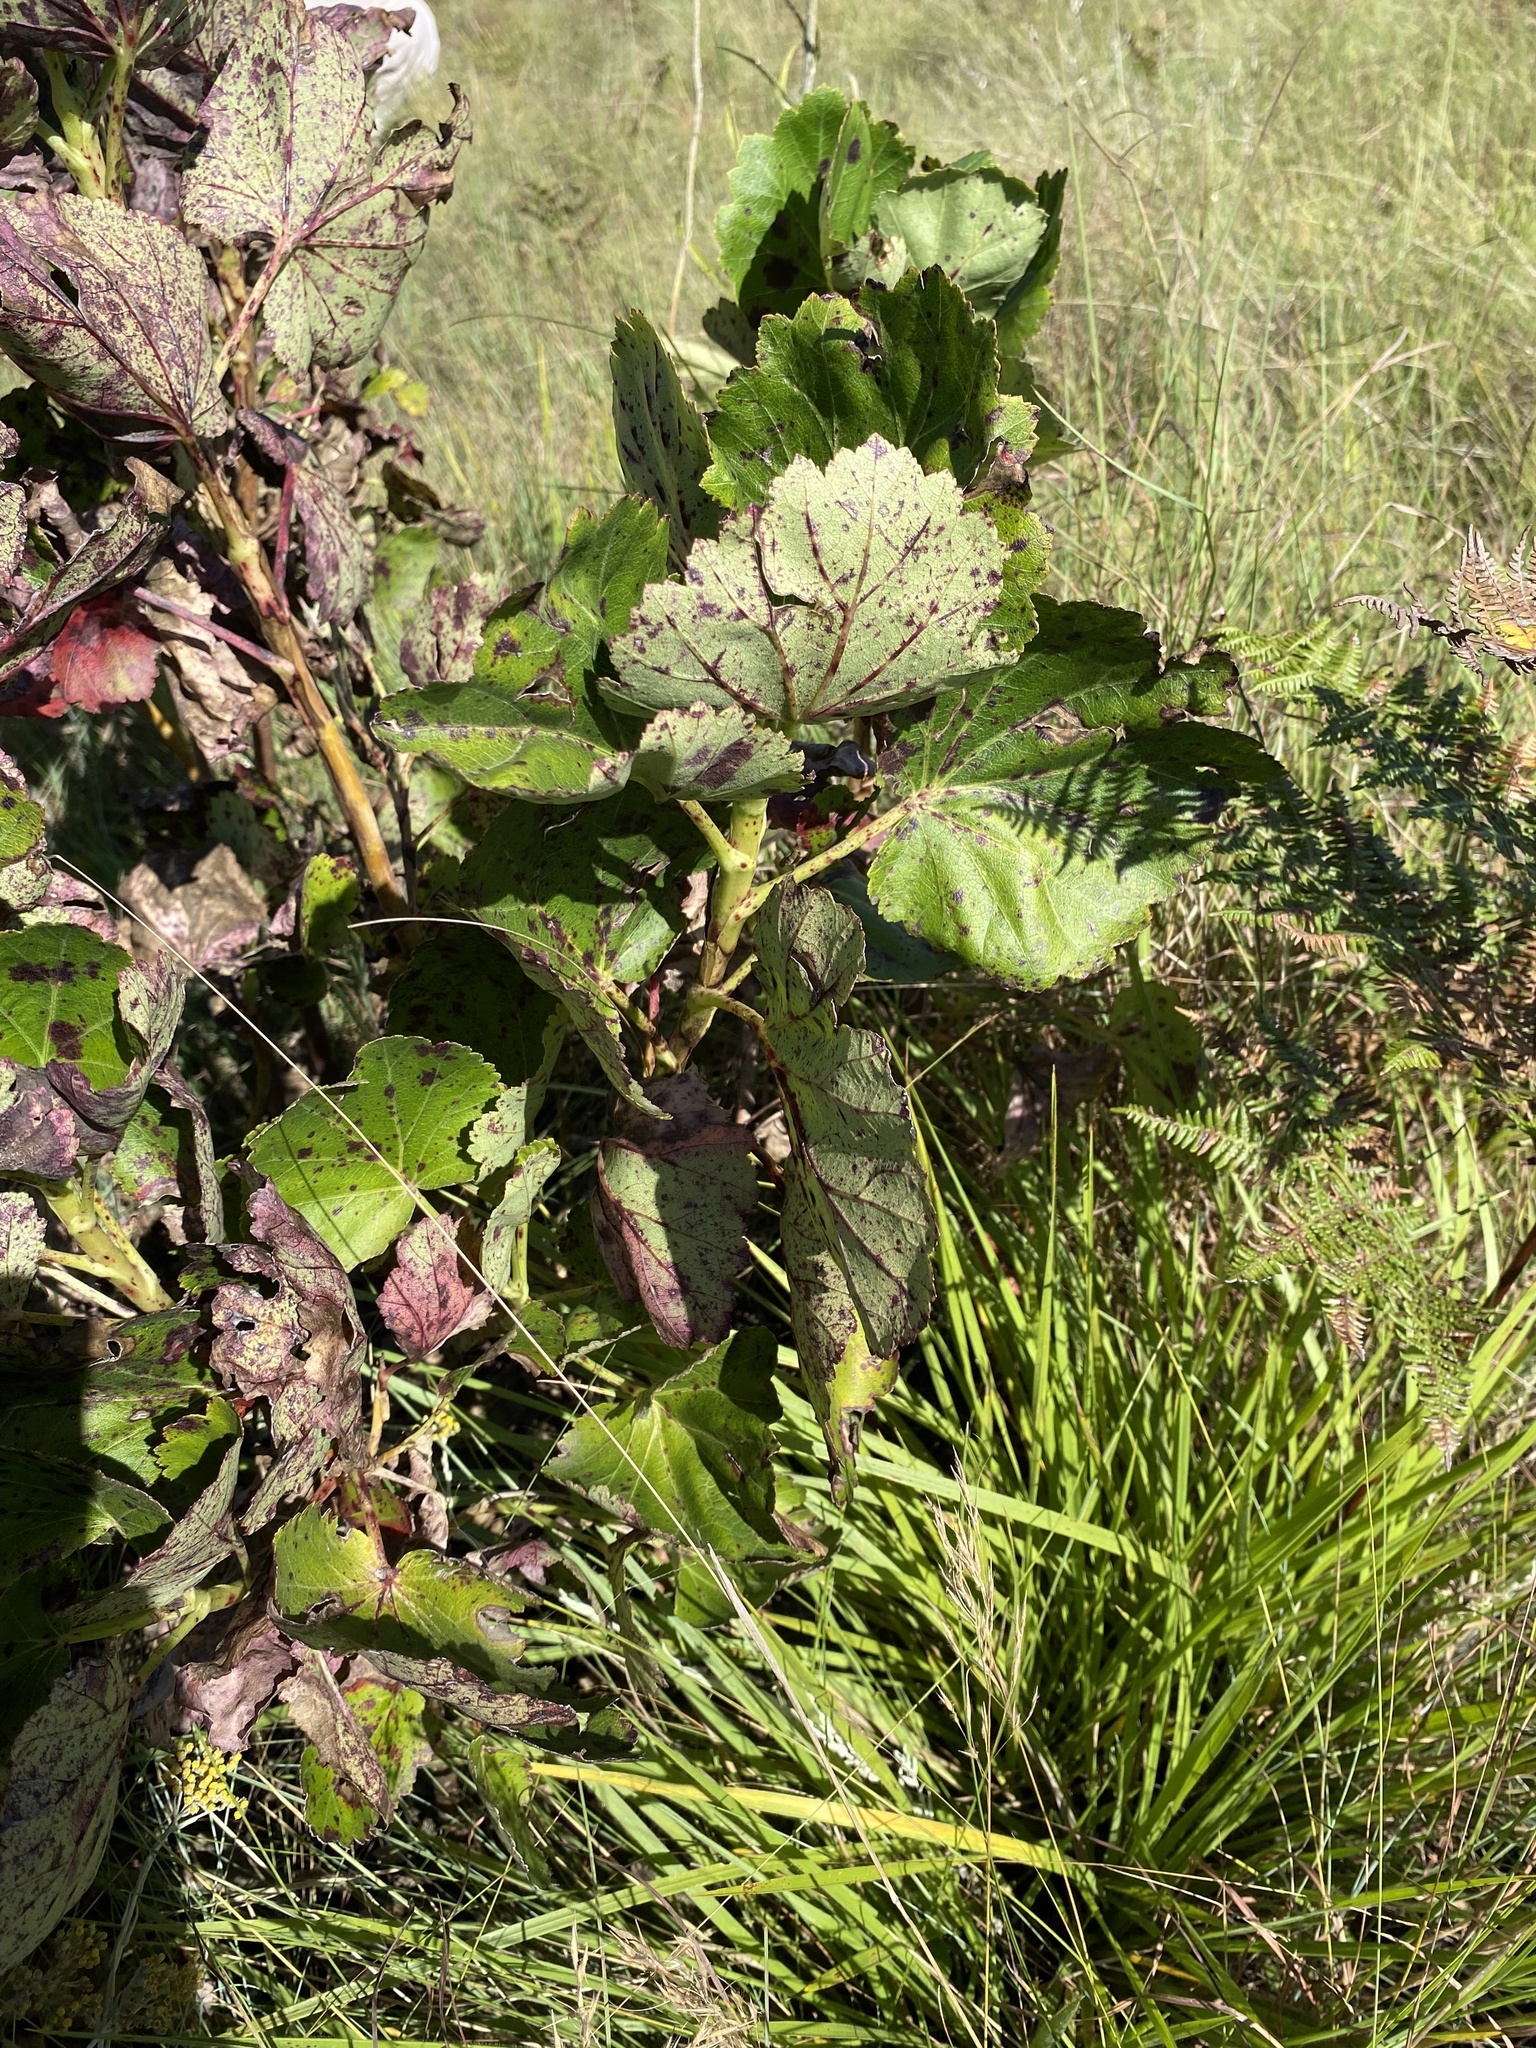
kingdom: Plantae
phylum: Tracheophyta
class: Magnoliopsida
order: Geraniales
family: Francoaceae
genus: Greyia
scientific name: Greyia sutherlandii
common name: Glossy bottlebrush
